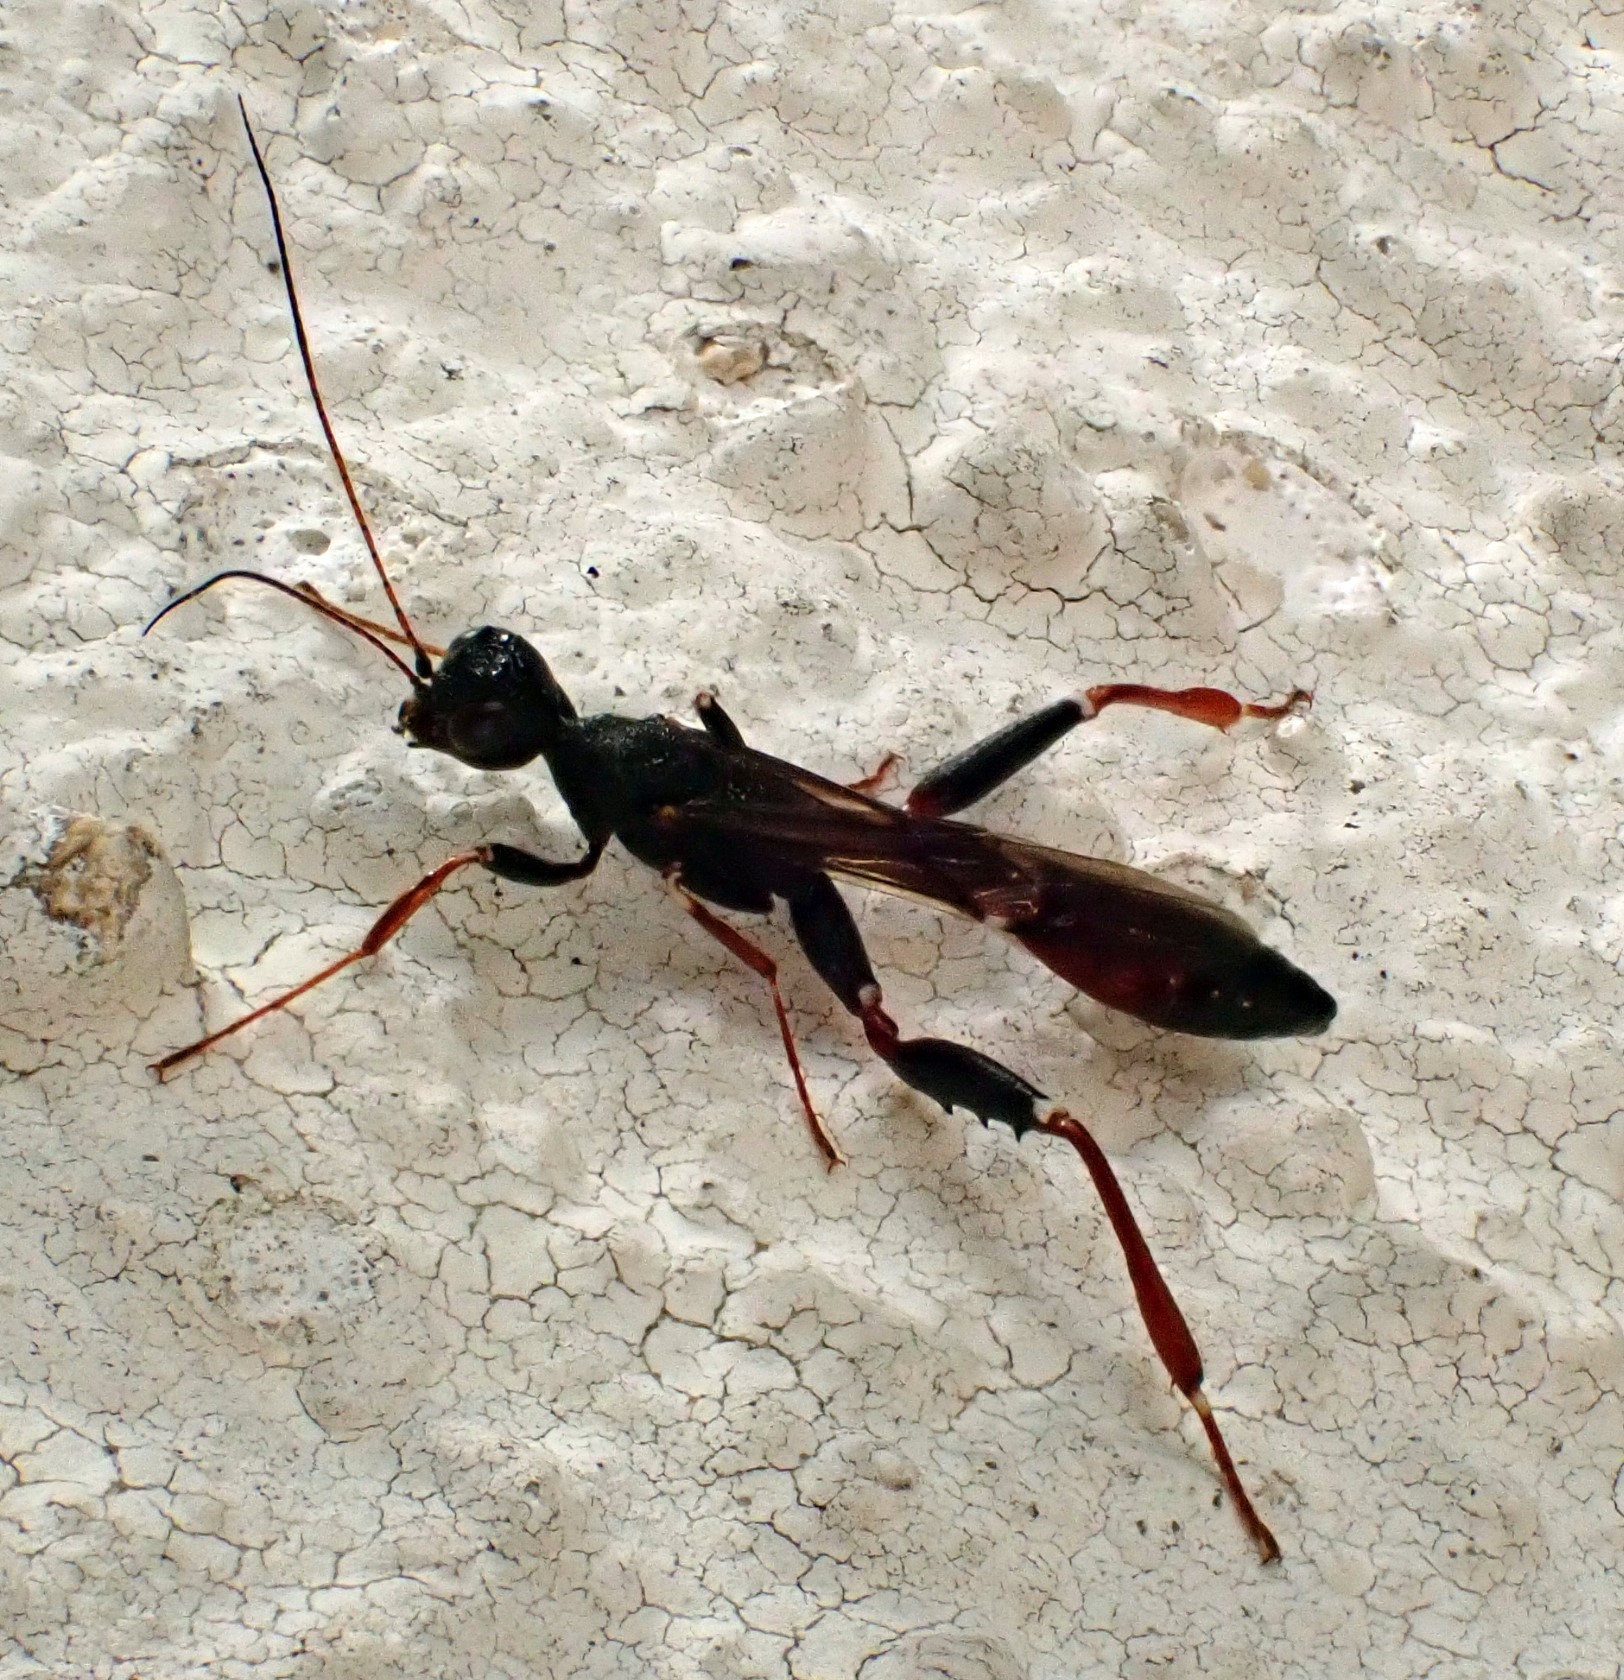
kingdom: Animalia
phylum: Arthropoda
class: Insecta
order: Hymenoptera
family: Stephanidae
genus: Stephanus
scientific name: Stephanus serrator
